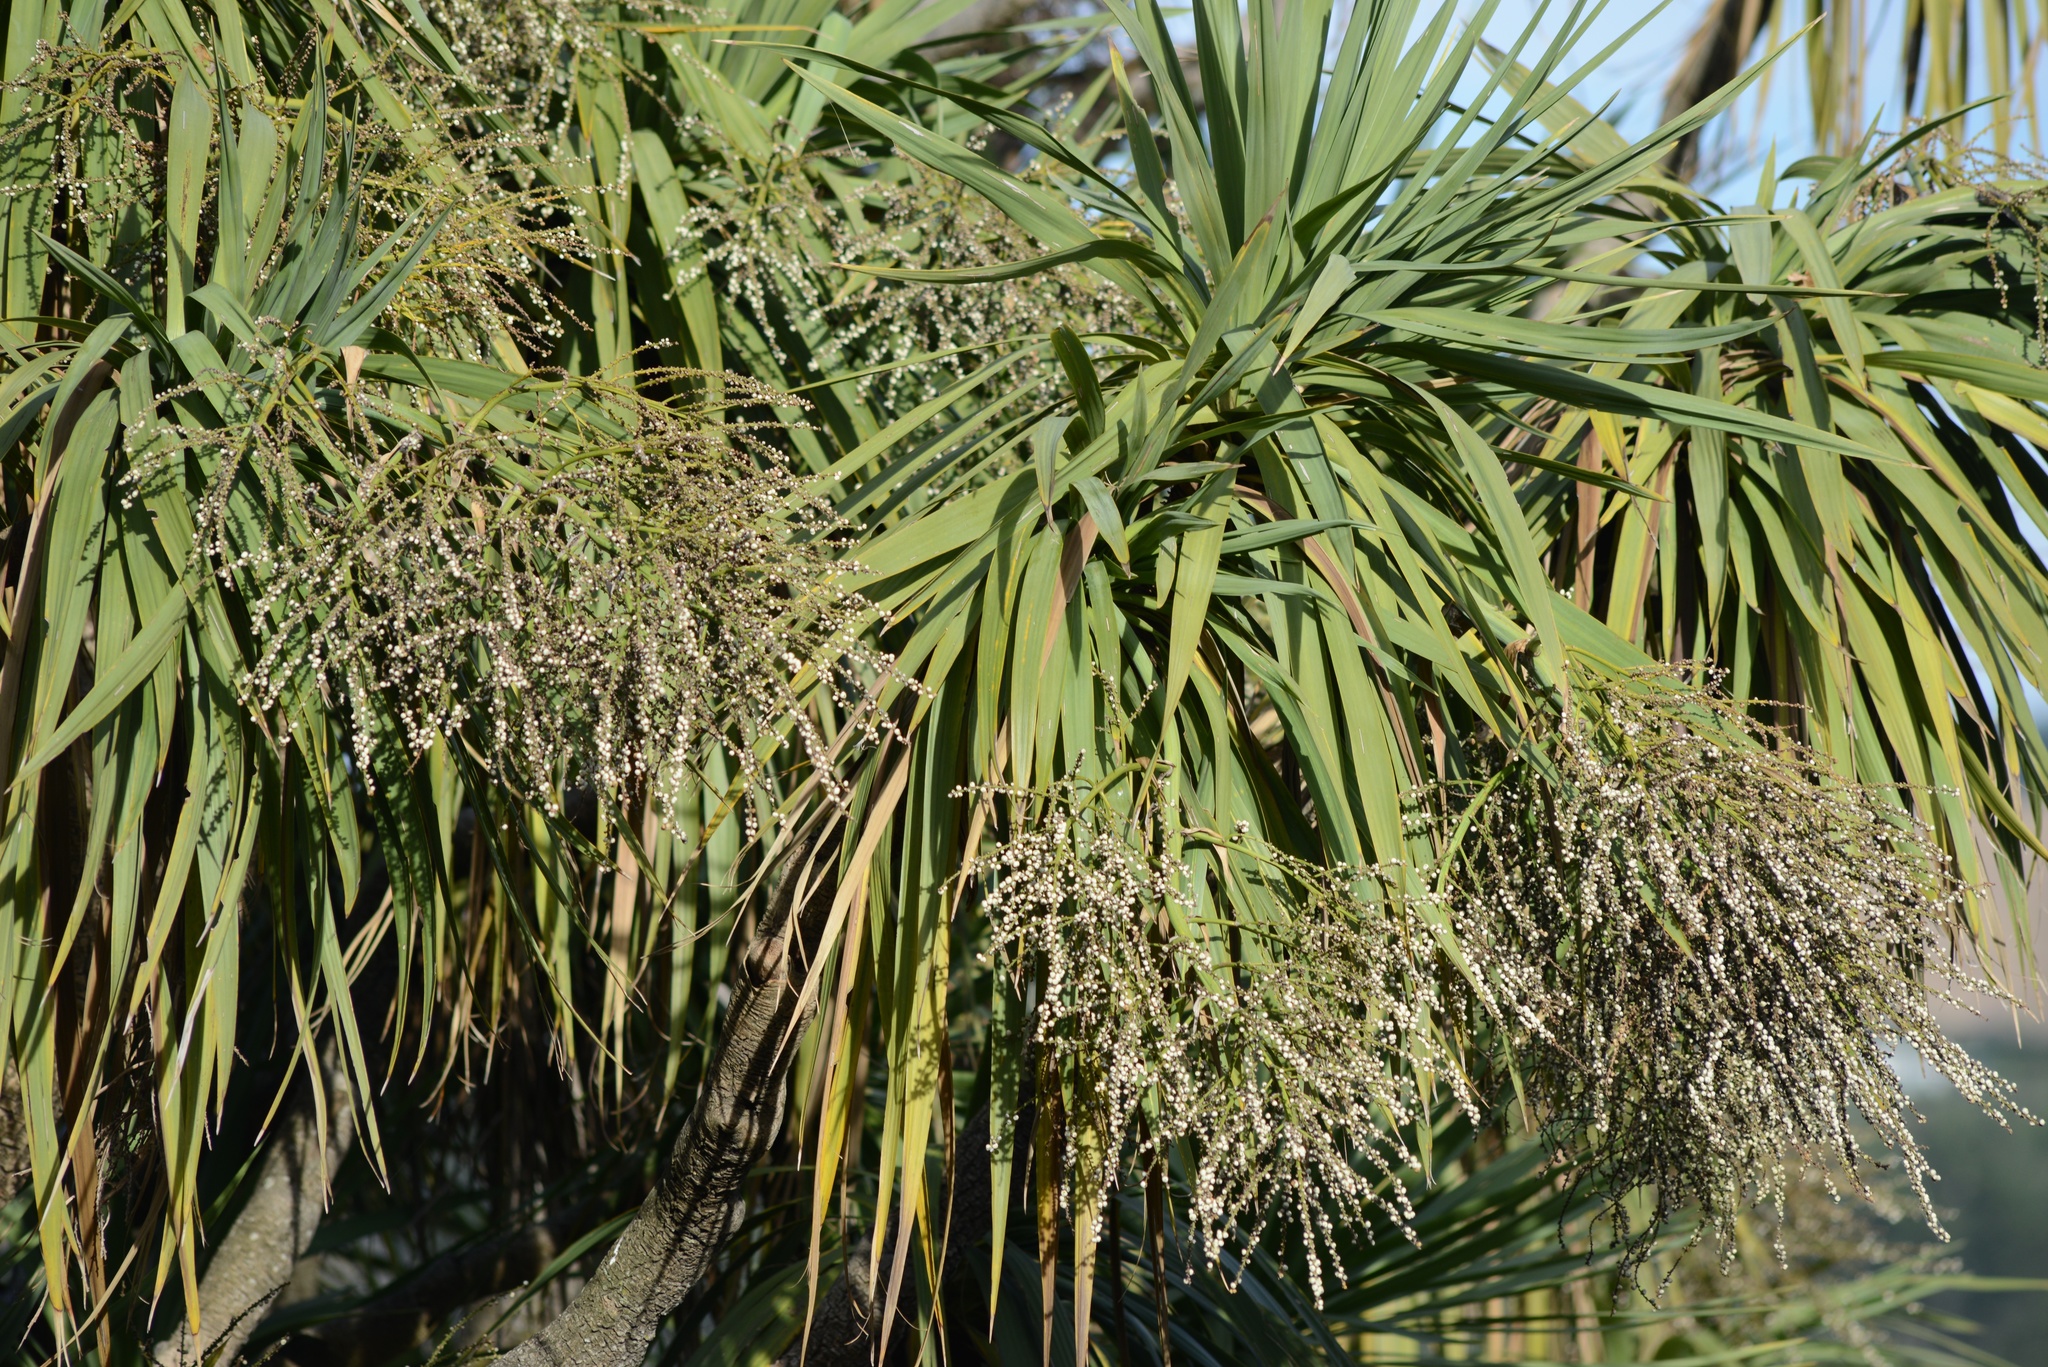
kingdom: Plantae
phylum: Tracheophyta
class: Liliopsida
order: Asparagales
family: Asparagaceae
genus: Cordyline
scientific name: Cordyline australis
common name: Cabbage-palm
